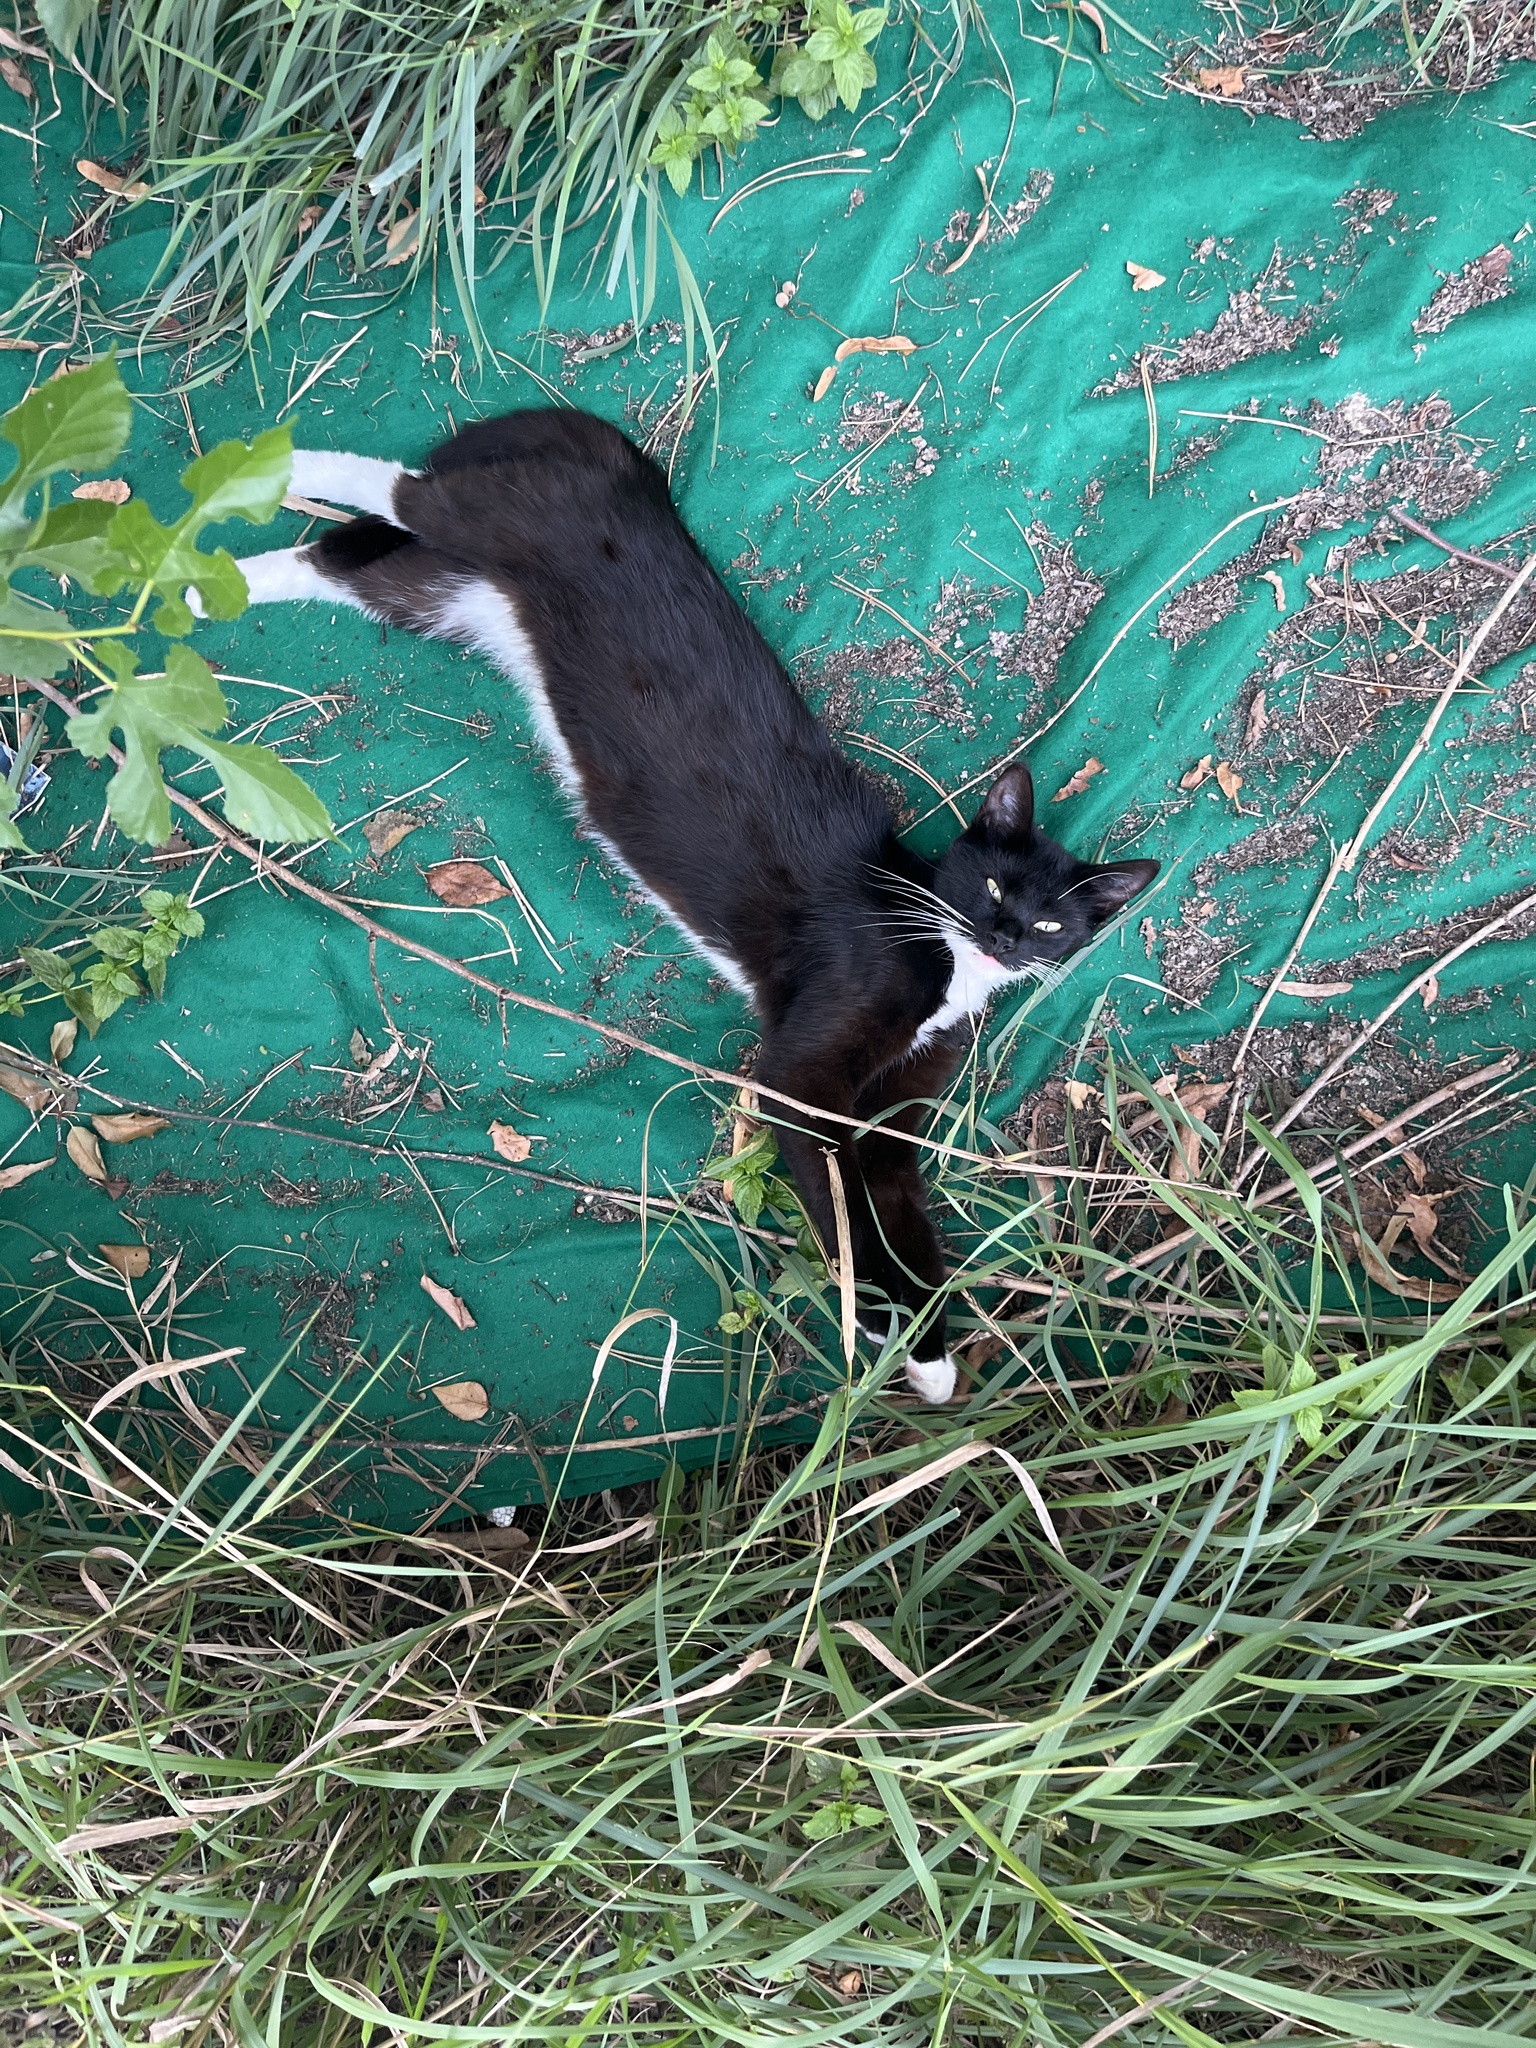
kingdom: Animalia
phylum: Chordata
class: Mammalia
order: Carnivora
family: Felidae
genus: Felis
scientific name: Felis catus
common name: Domestic cat
